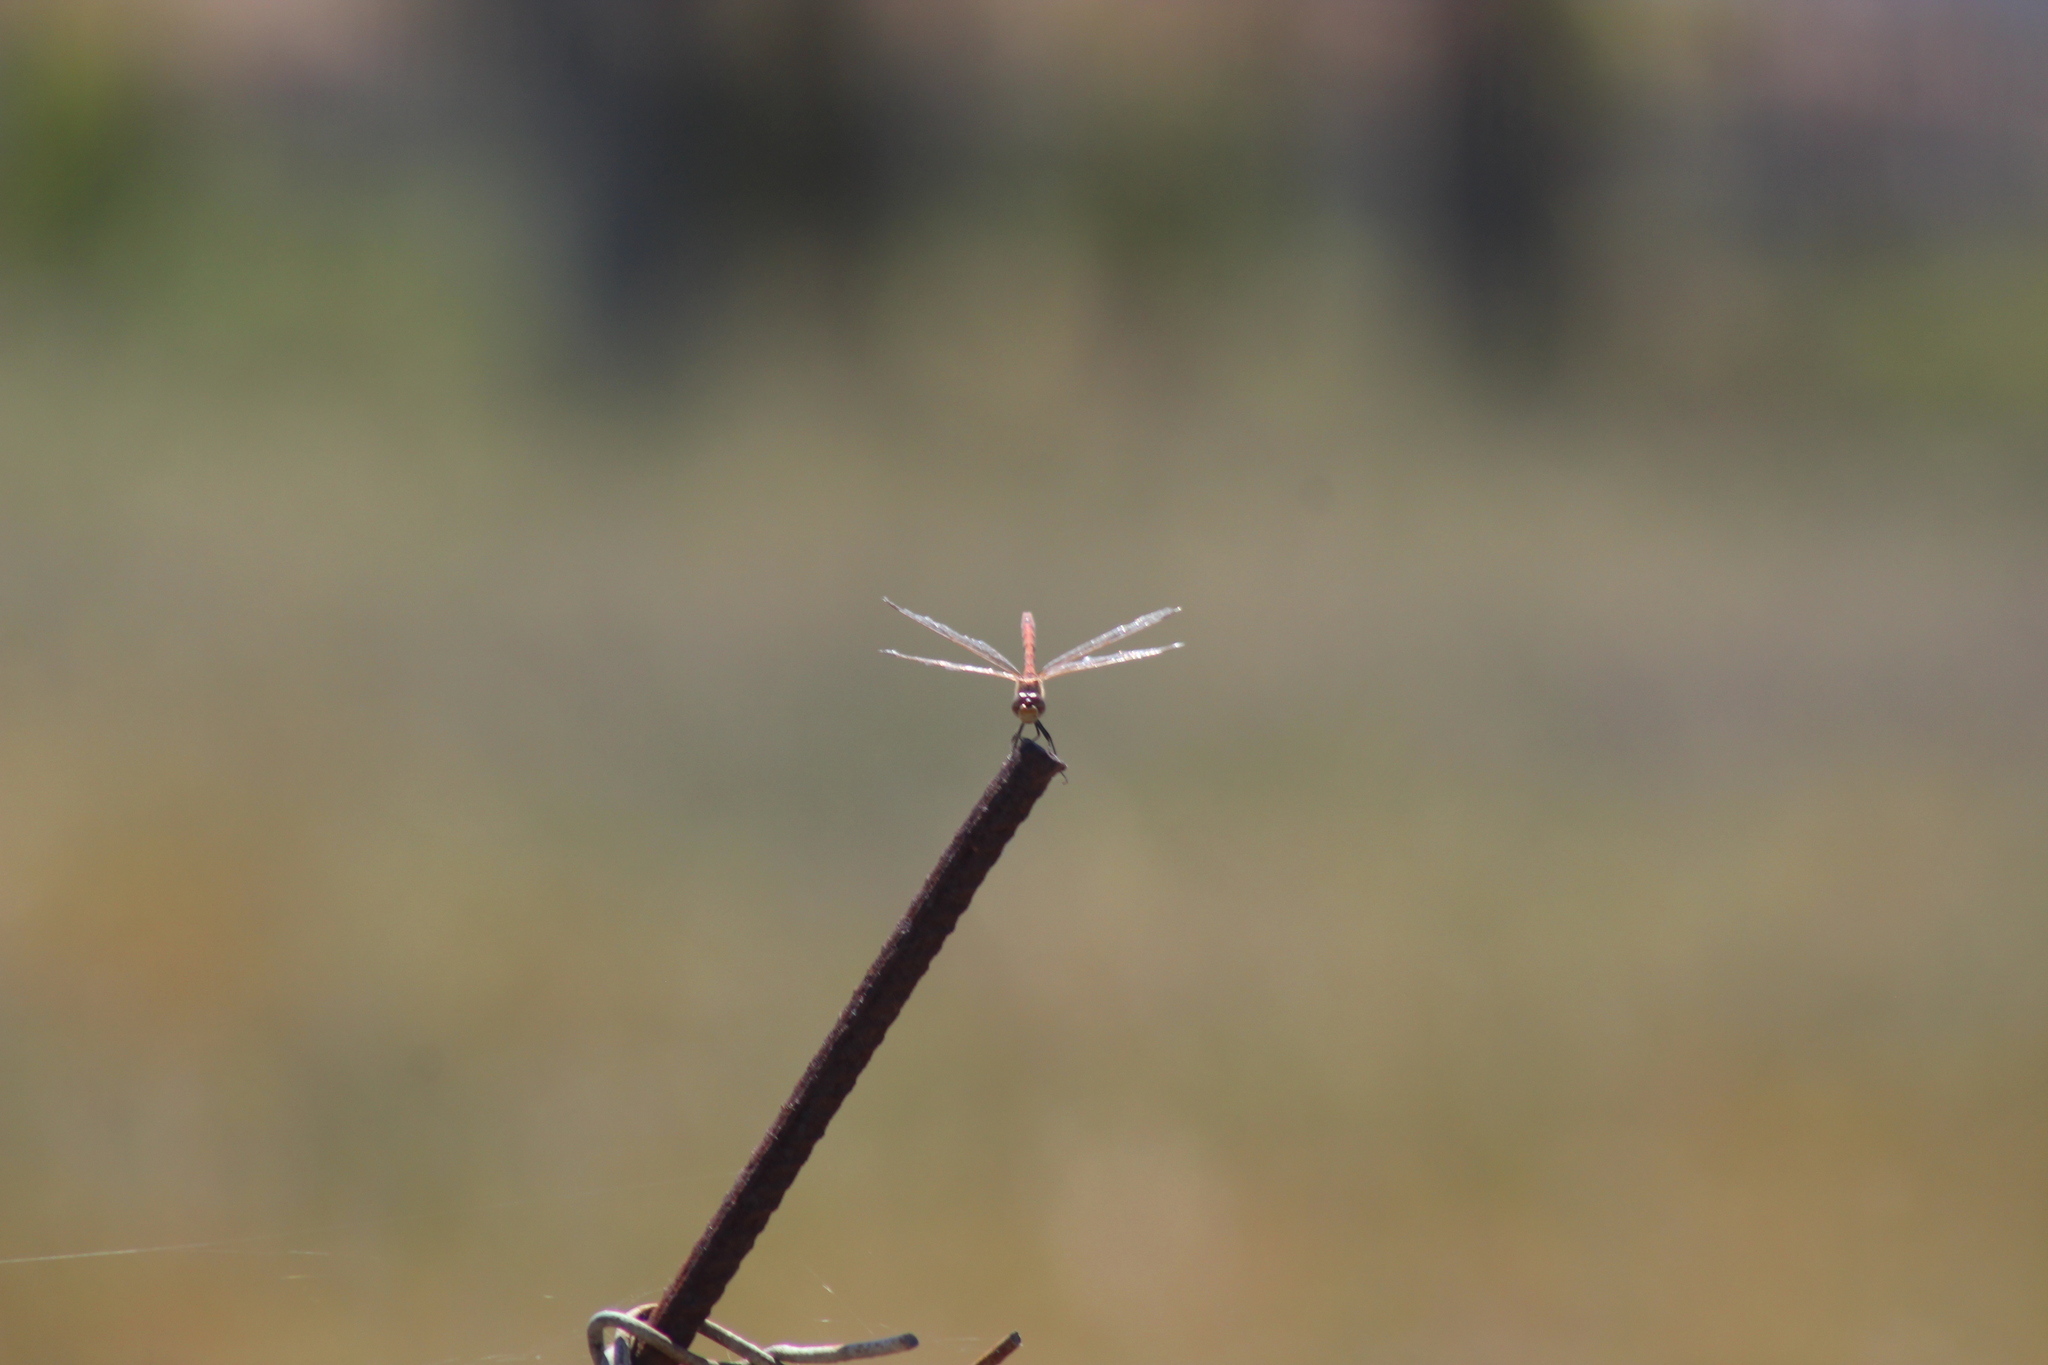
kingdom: Animalia
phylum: Arthropoda
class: Insecta
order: Odonata
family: Libellulidae
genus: Sympetrum
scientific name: Sympetrum fonscolombii
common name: Red-veined darter
